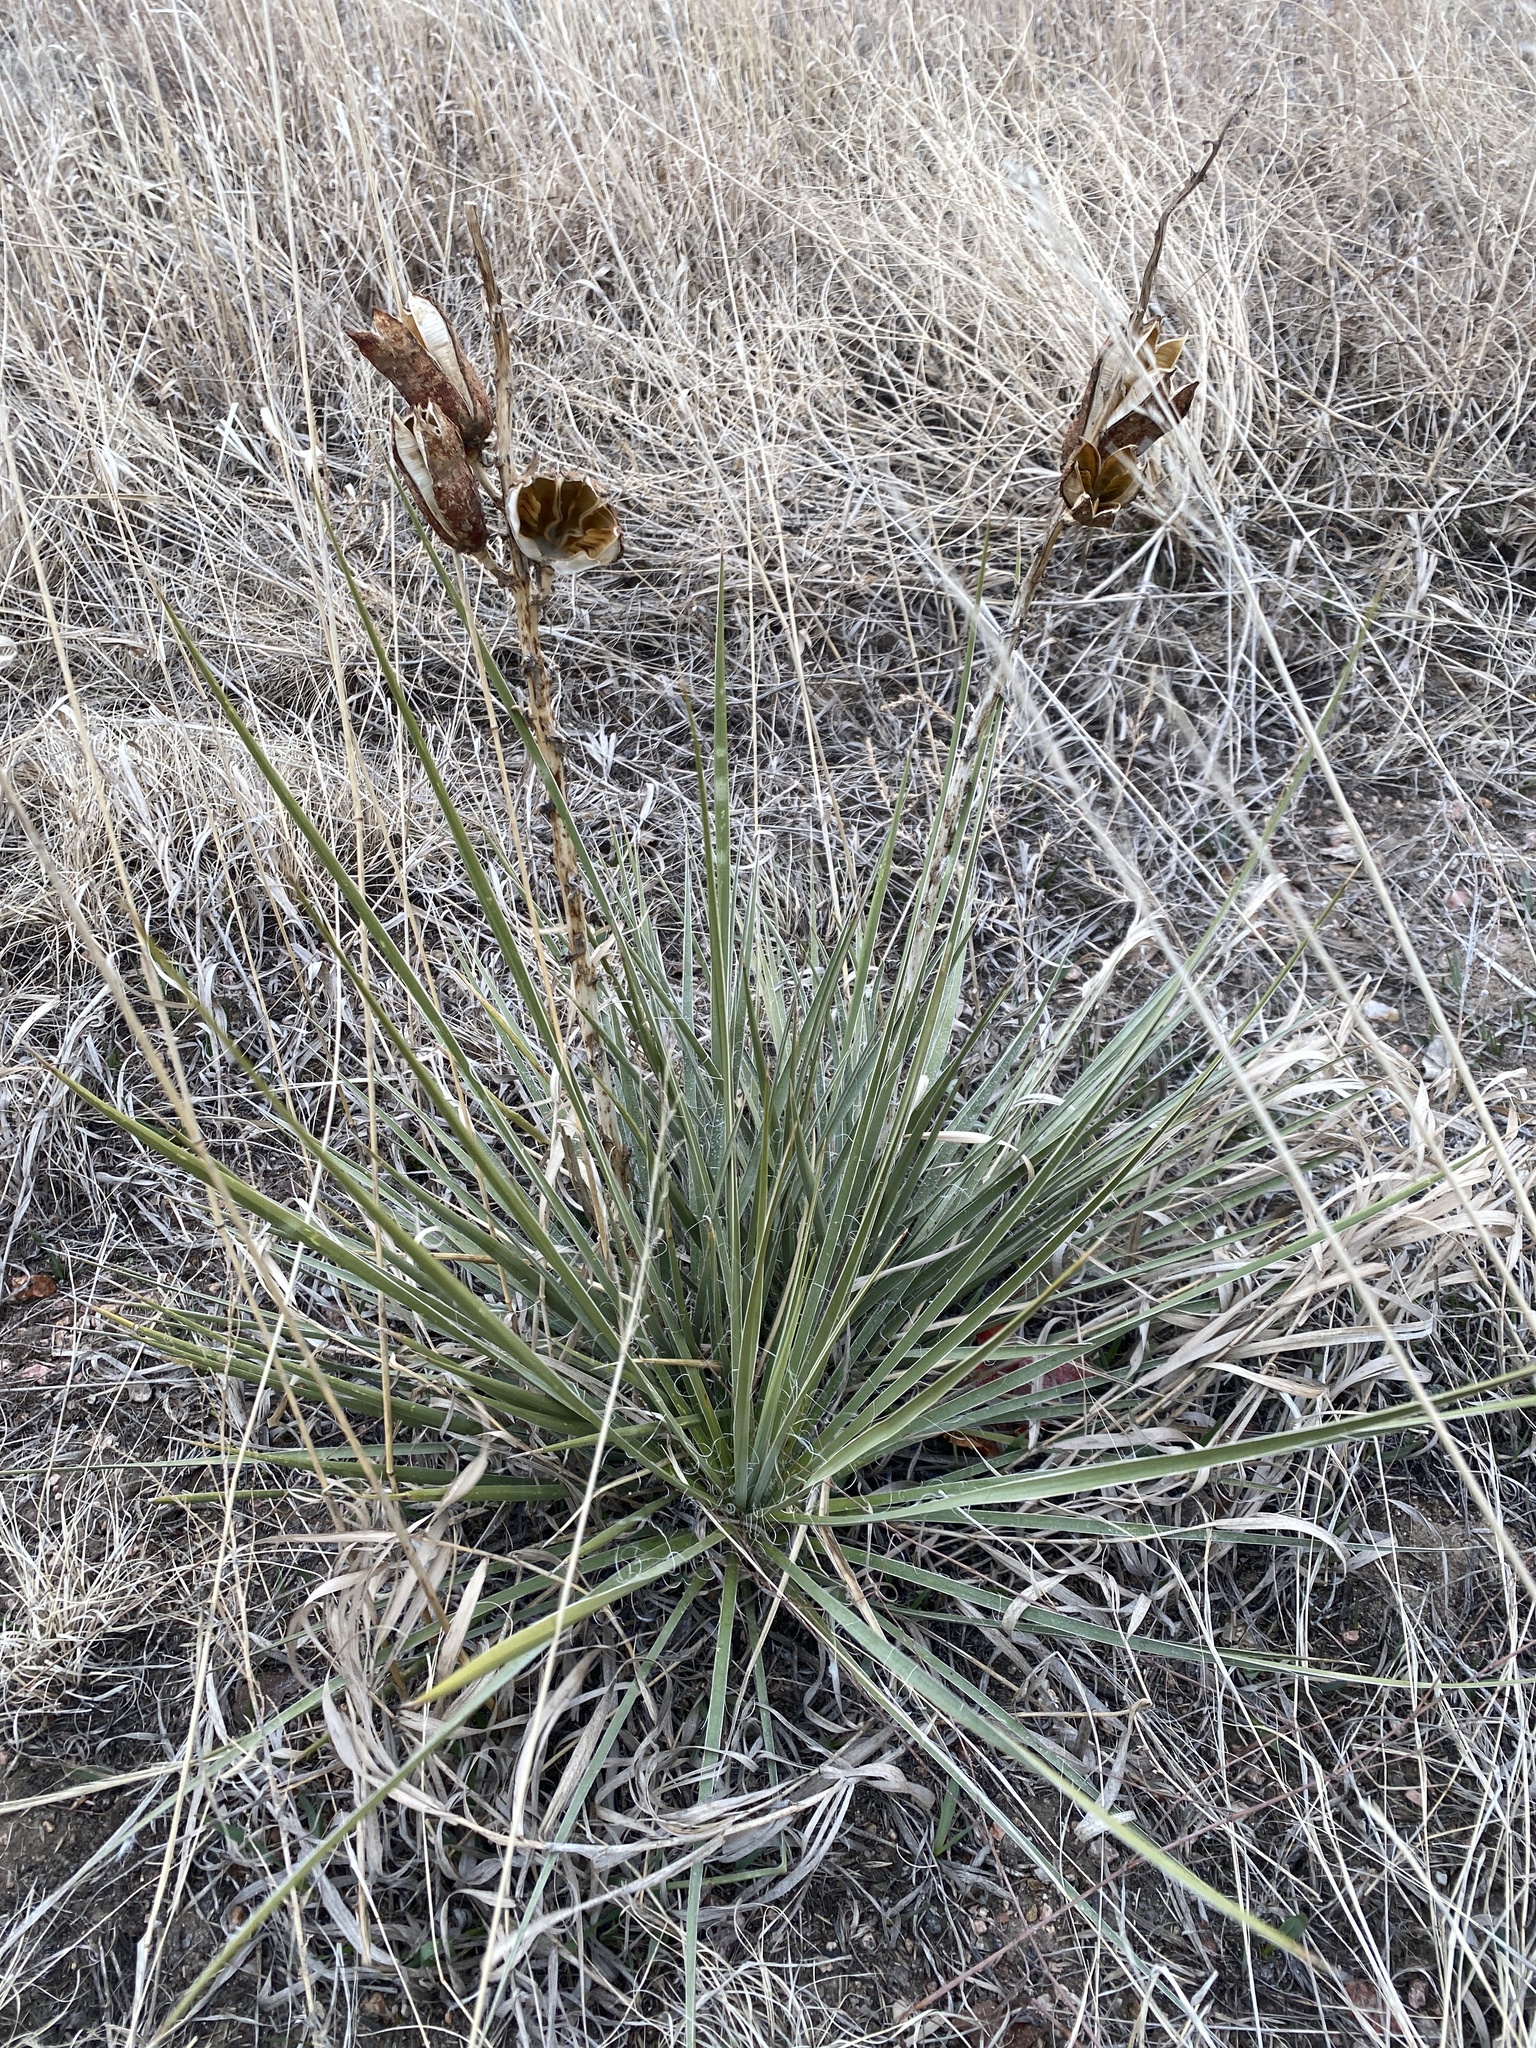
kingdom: Plantae
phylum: Tracheophyta
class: Liliopsida
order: Asparagales
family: Asparagaceae
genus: Yucca
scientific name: Yucca glauca
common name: Great plains yucca
